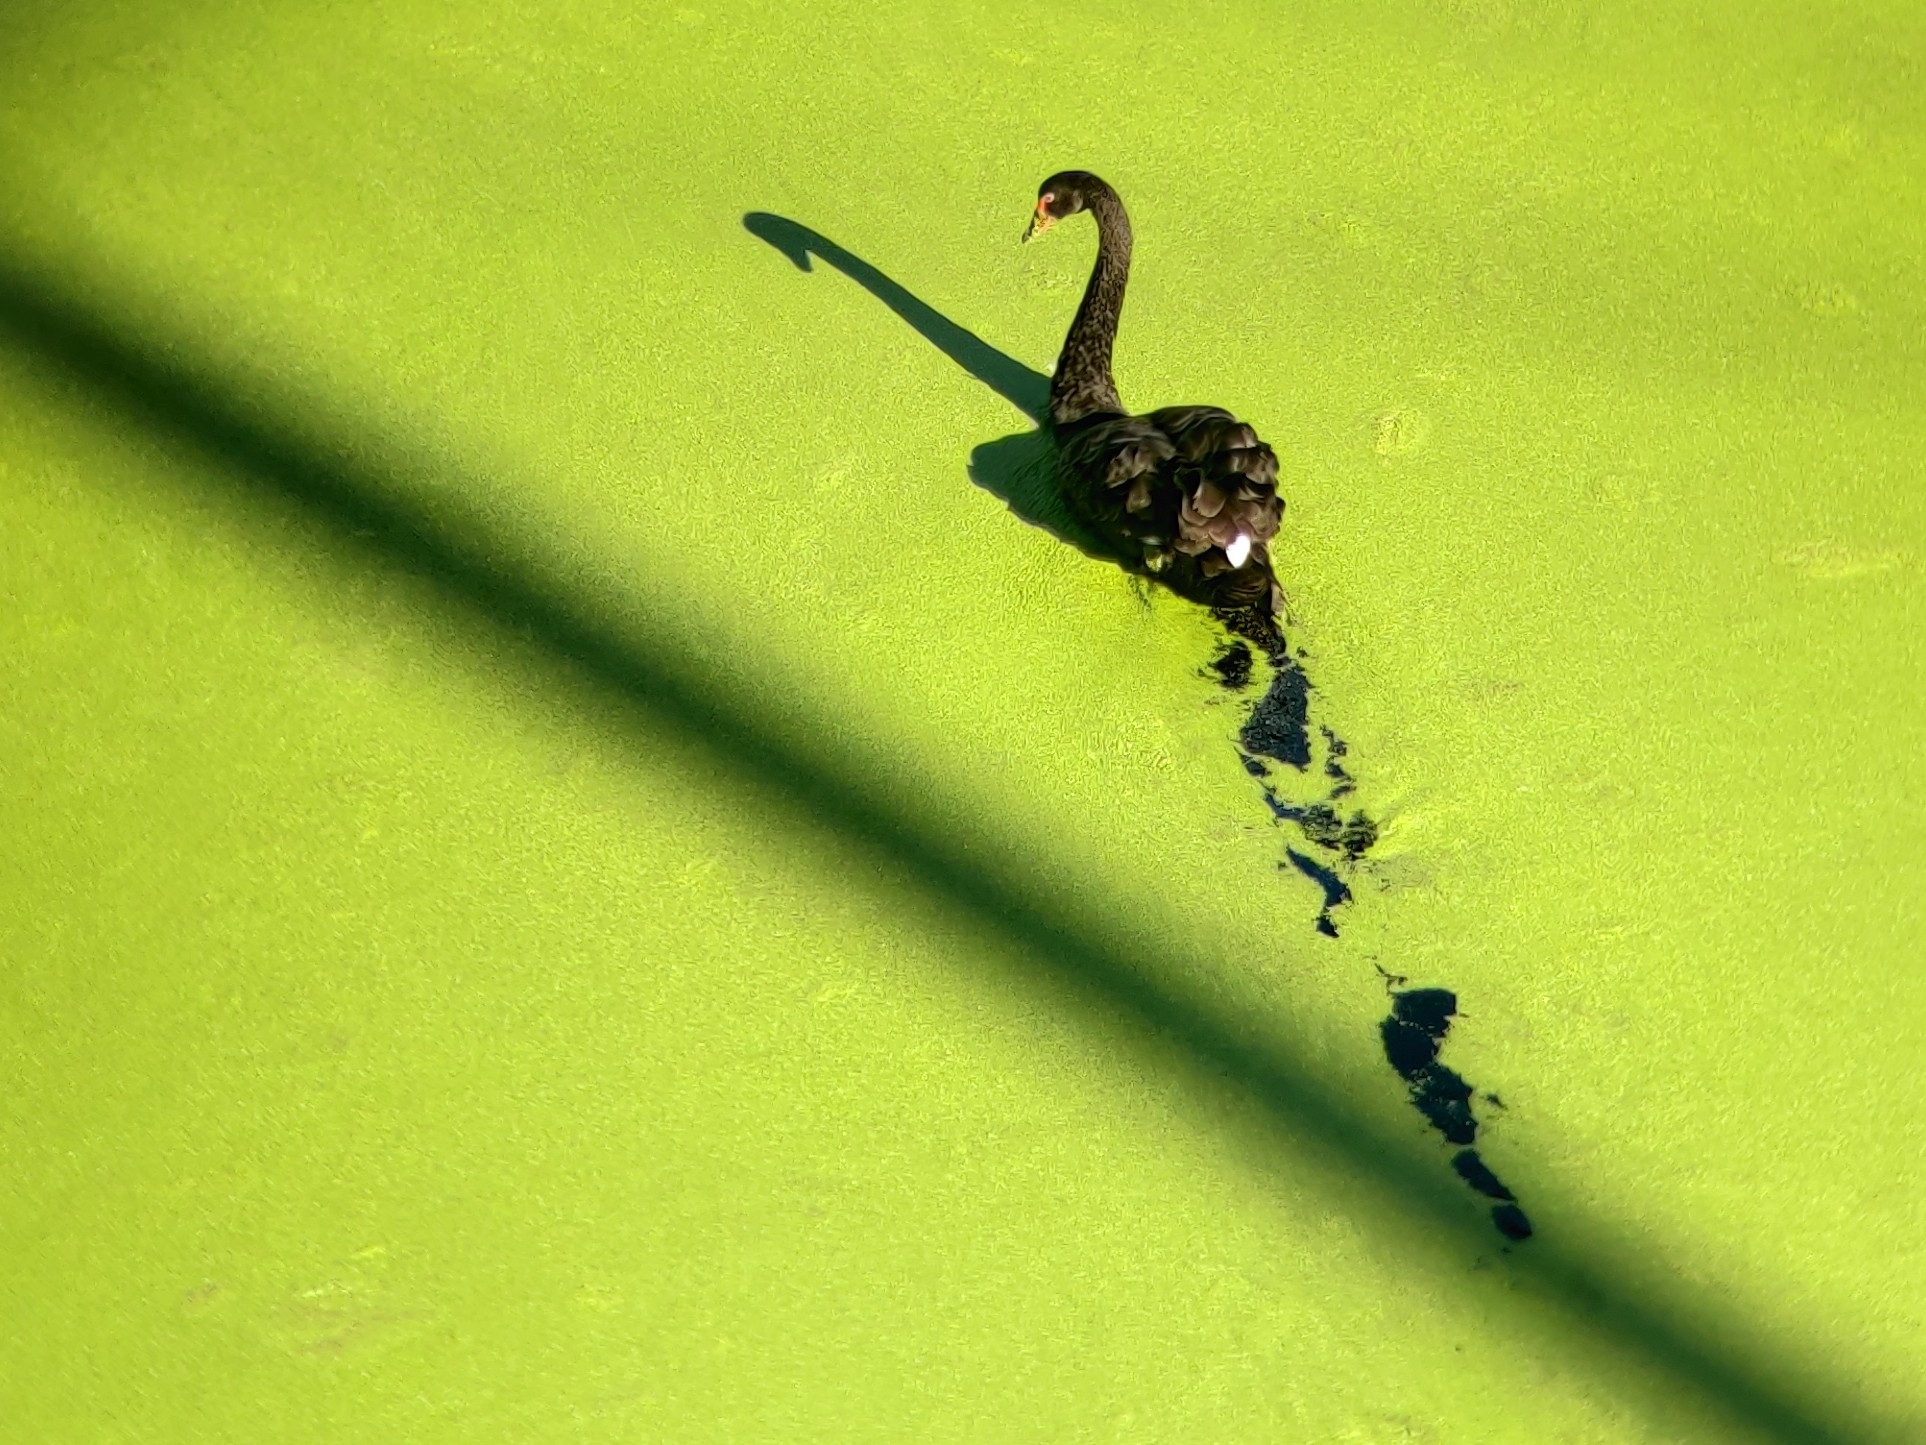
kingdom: Animalia
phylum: Chordata
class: Aves
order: Anseriformes
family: Anatidae
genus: Cygnus
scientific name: Cygnus atratus
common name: Black swan
